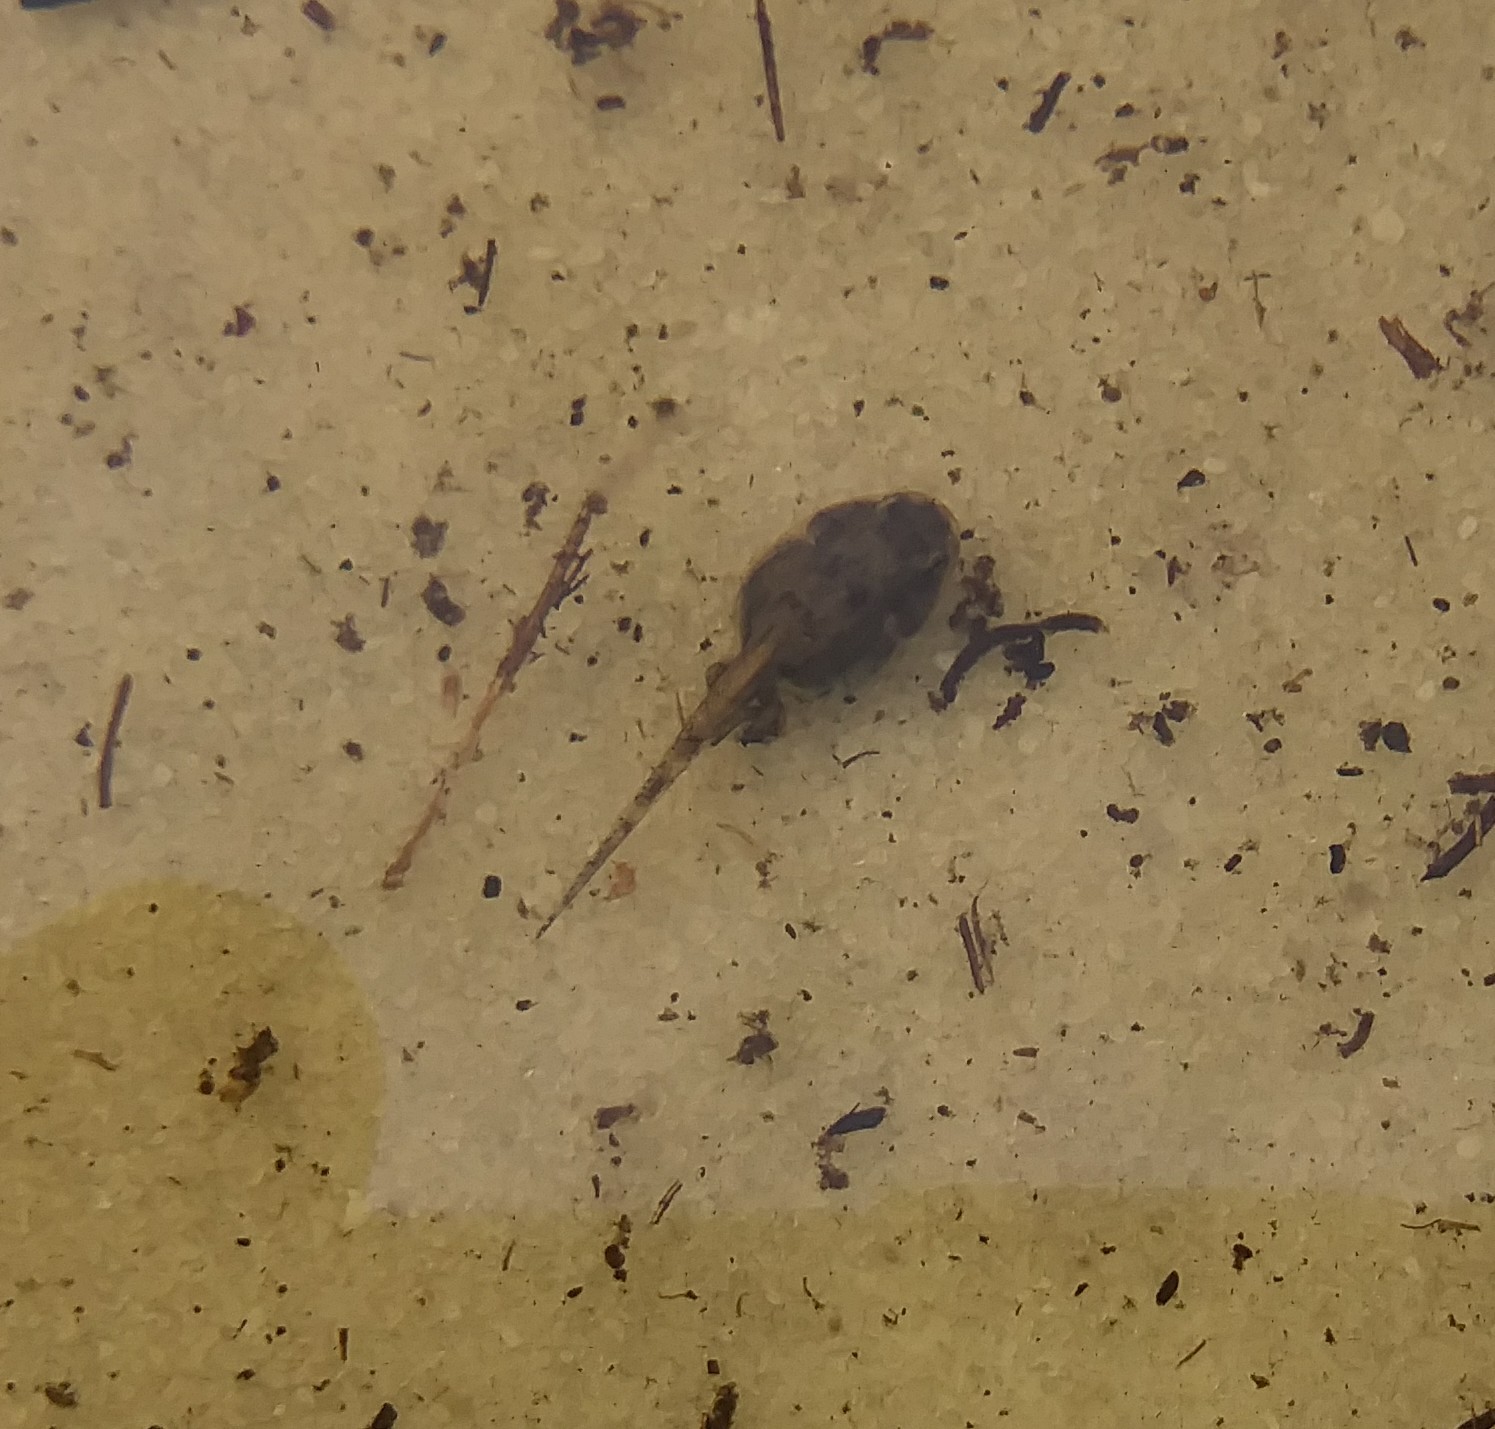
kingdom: Animalia
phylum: Chordata
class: Amphibia
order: Anura
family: Bufonidae
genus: Anaxyrus
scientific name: Anaxyrus terrestris
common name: Southern toad
